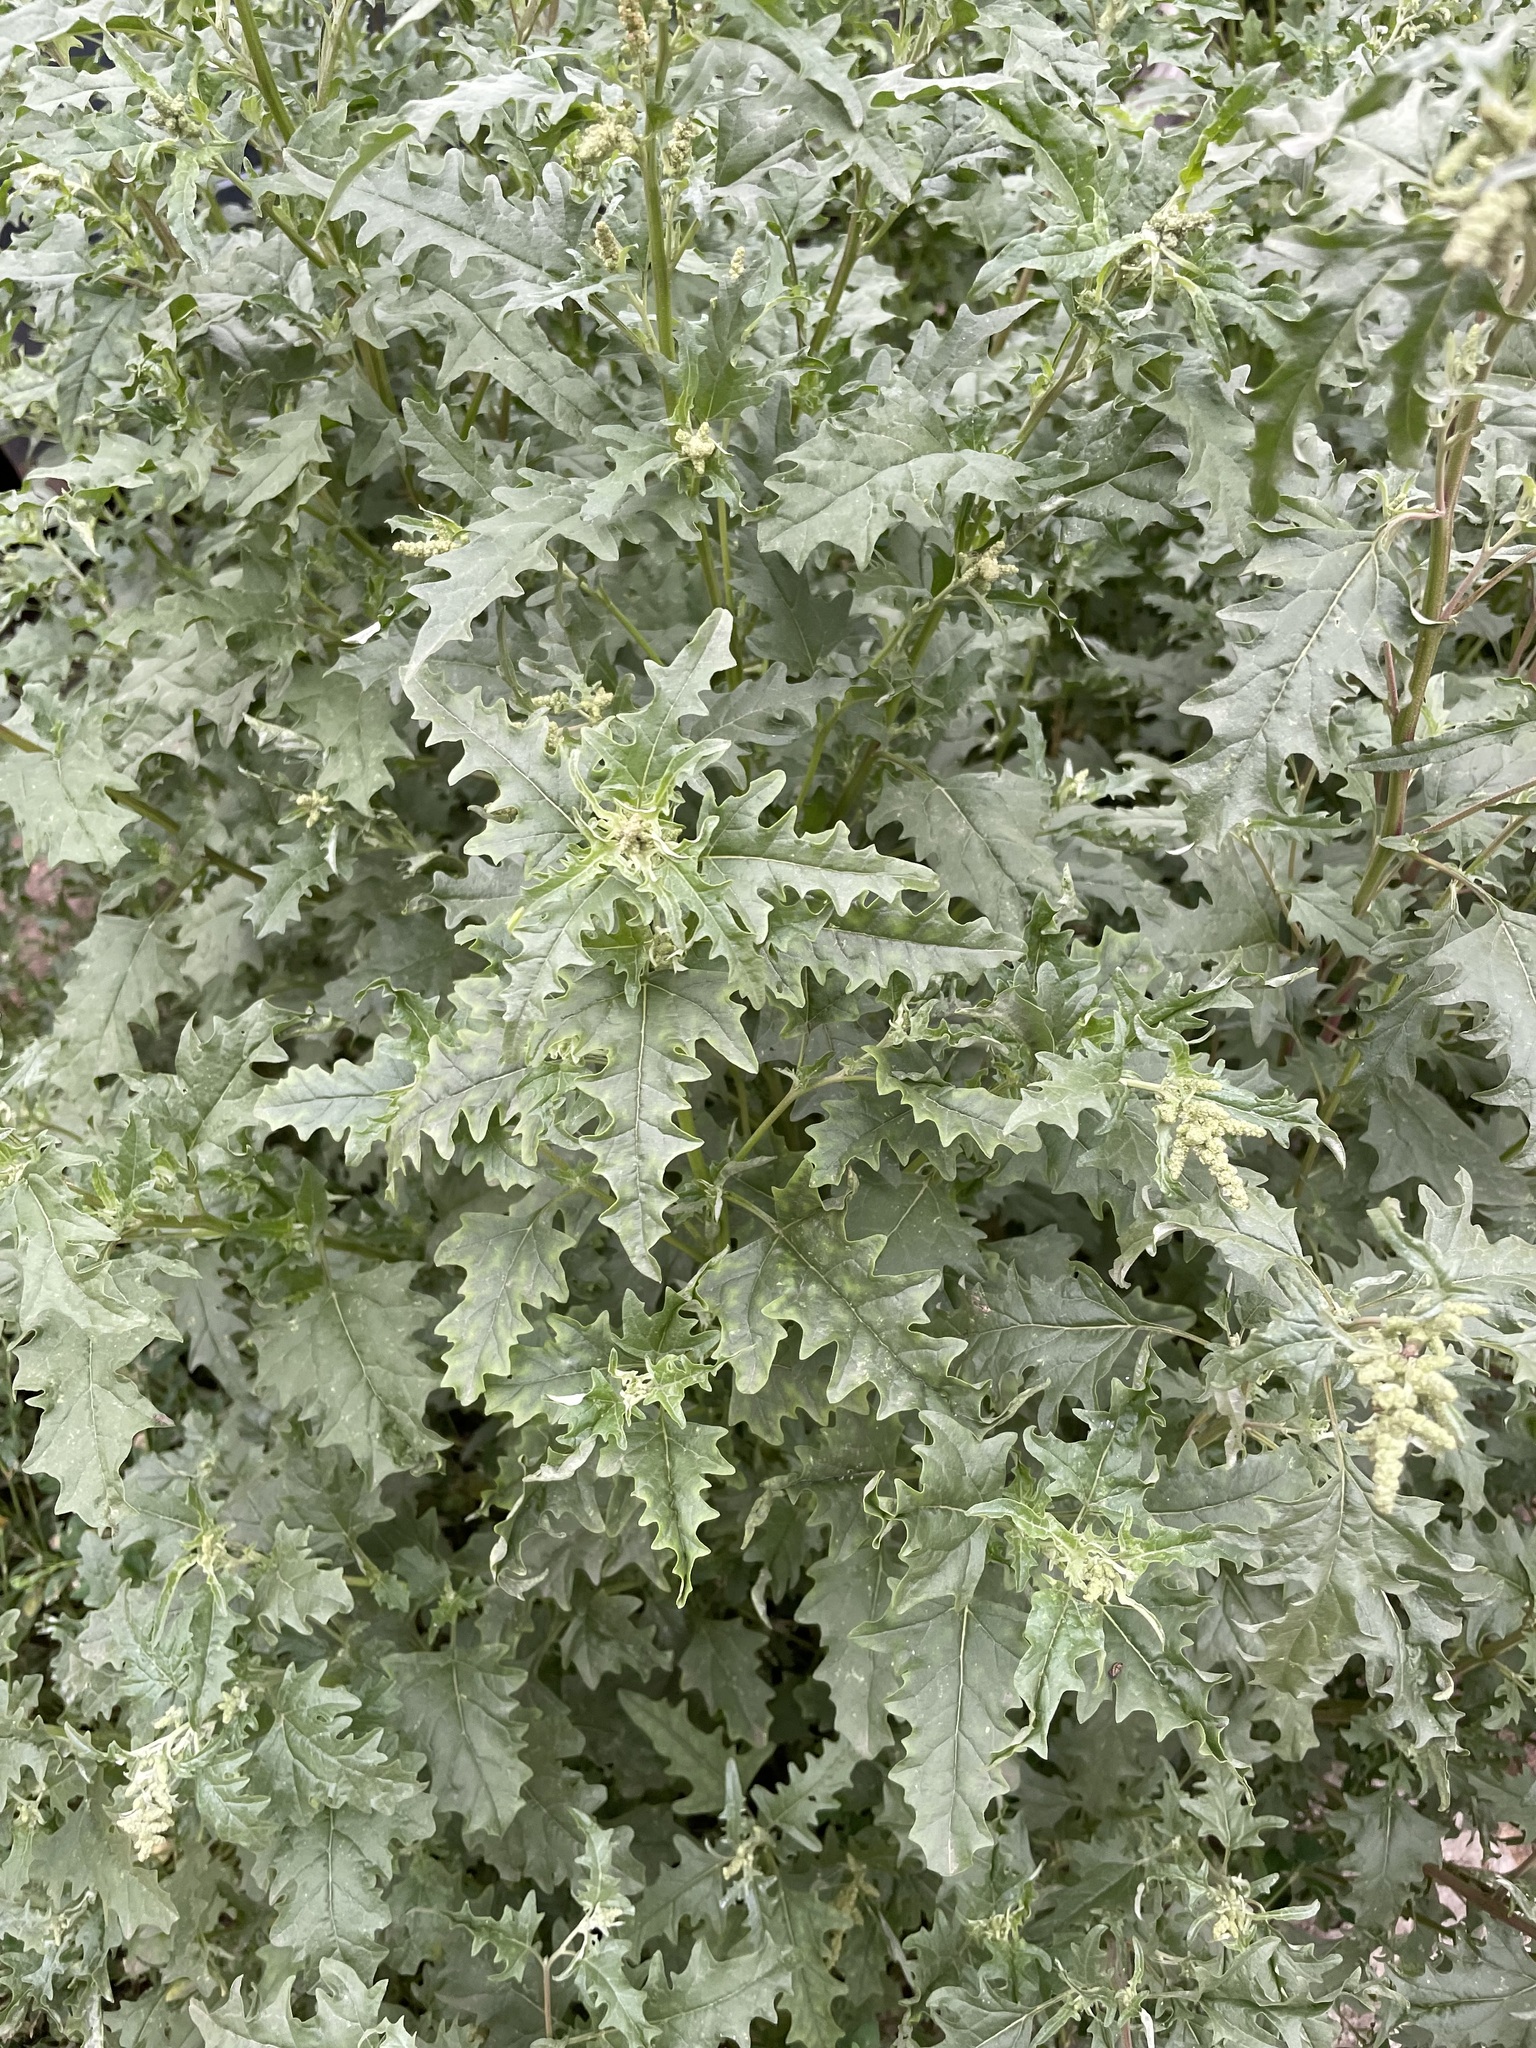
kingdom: Plantae
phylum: Tracheophyta
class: Magnoliopsida
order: Caryophyllales
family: Amaranthaceae
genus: Atriplex
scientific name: Atriplex tatarica
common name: Tatarian orache
